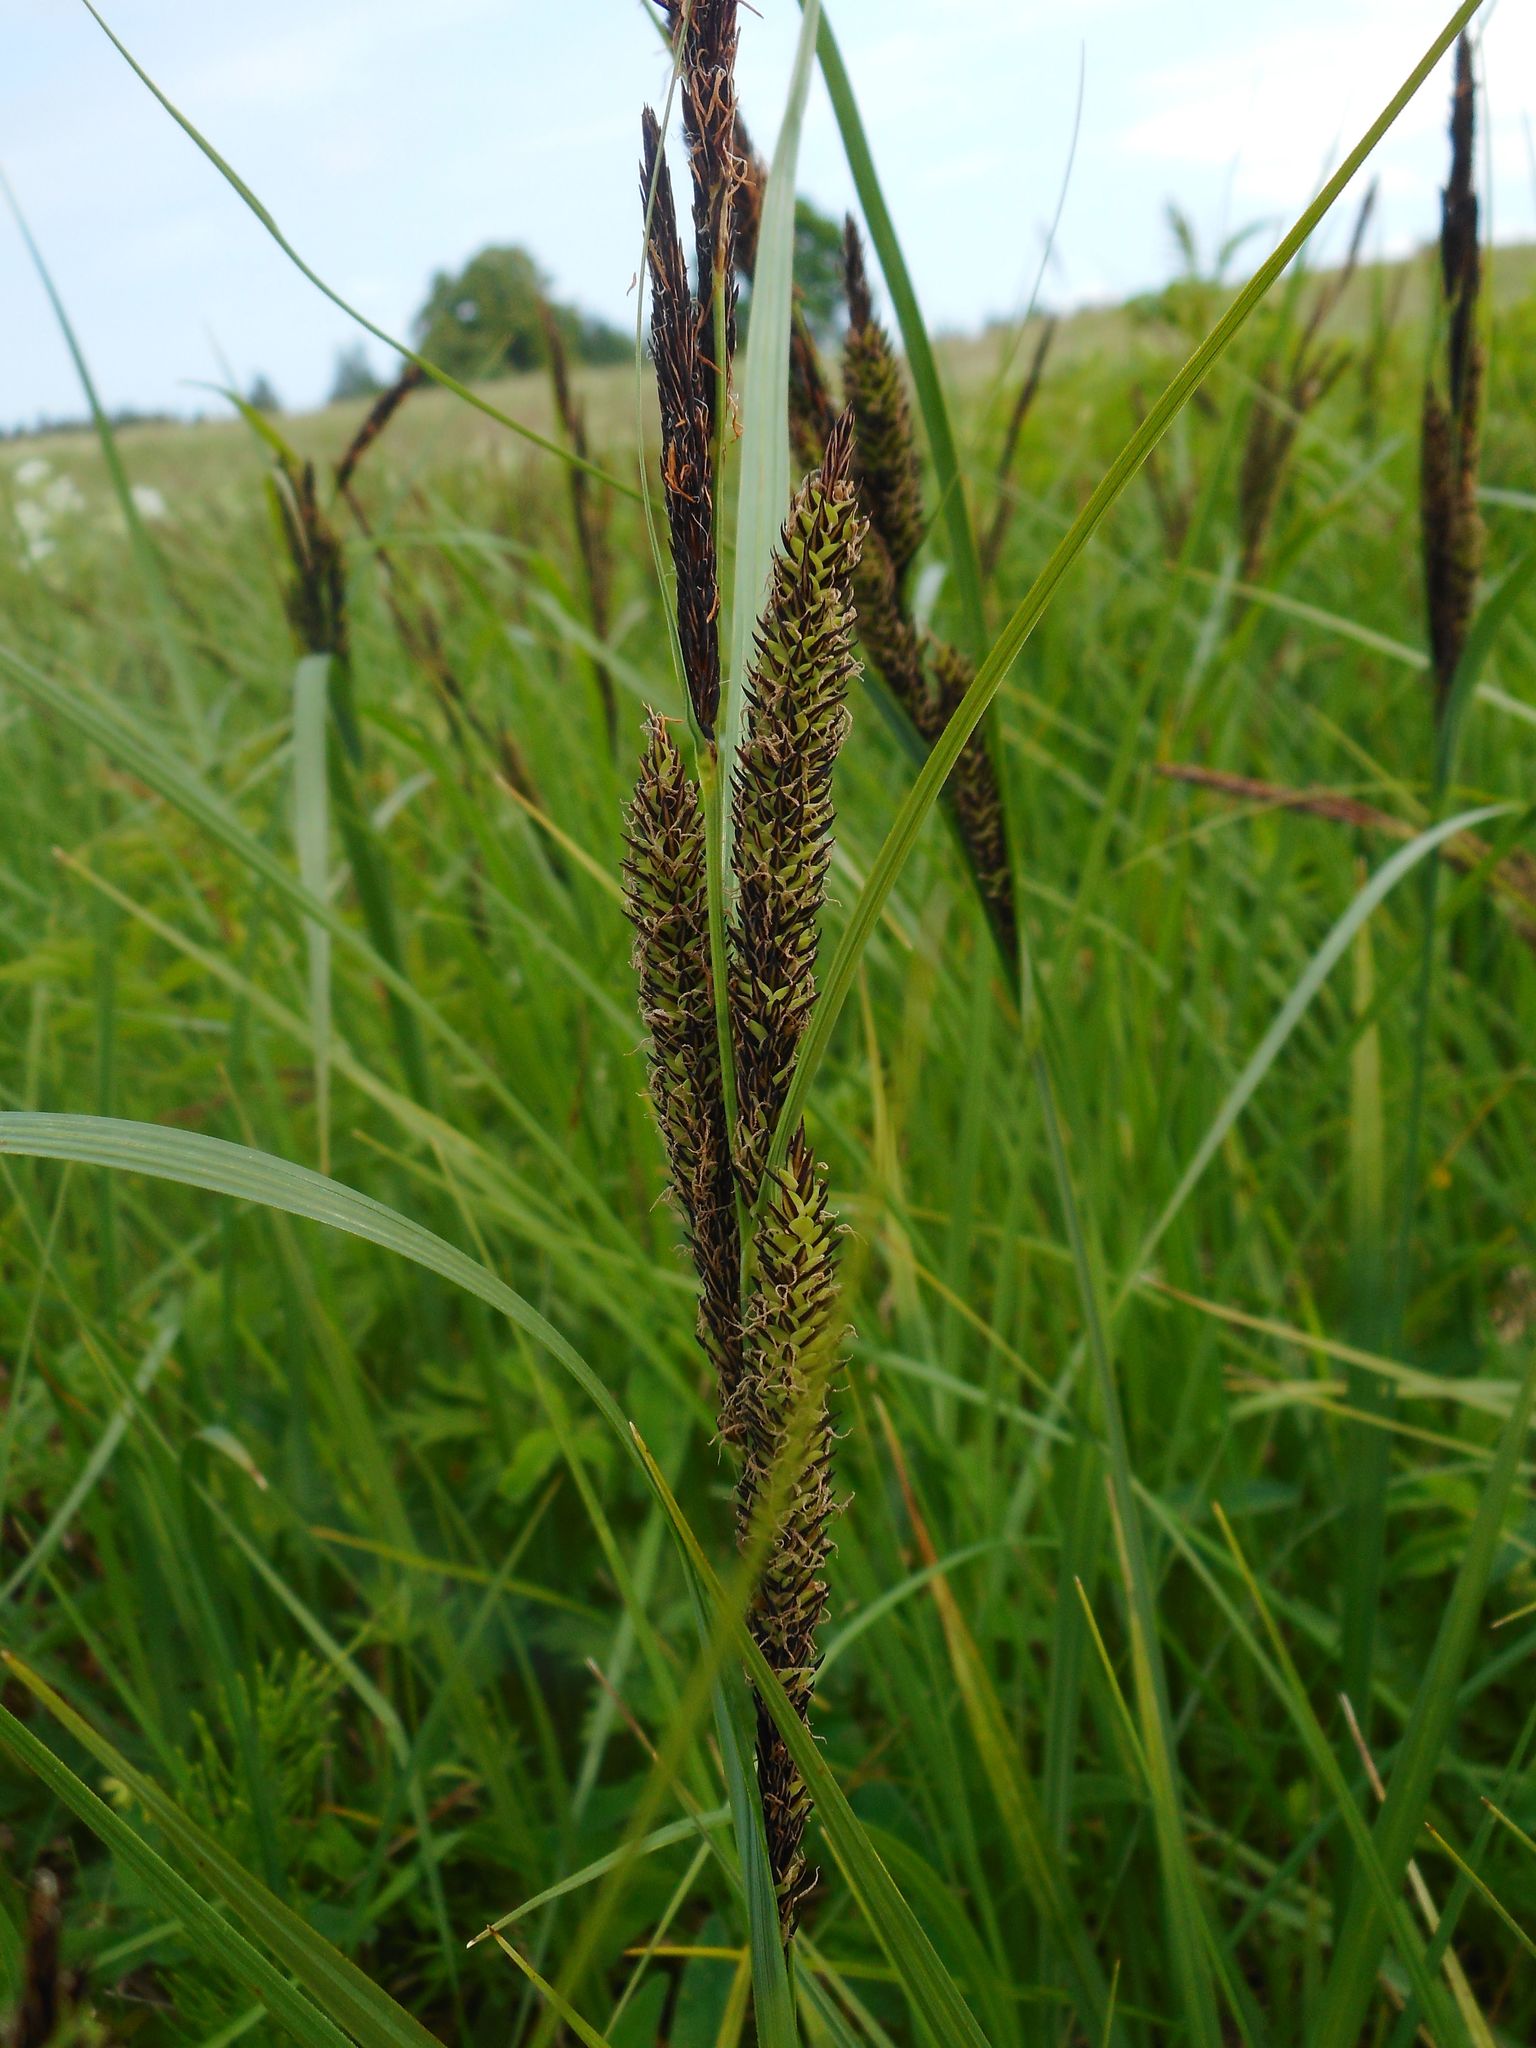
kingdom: Plantae
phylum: Tracheophyta
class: Liliopsida
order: Poales
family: Cyperaceae
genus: Carex
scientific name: Carex acuta
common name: Slender tufted-sedge
